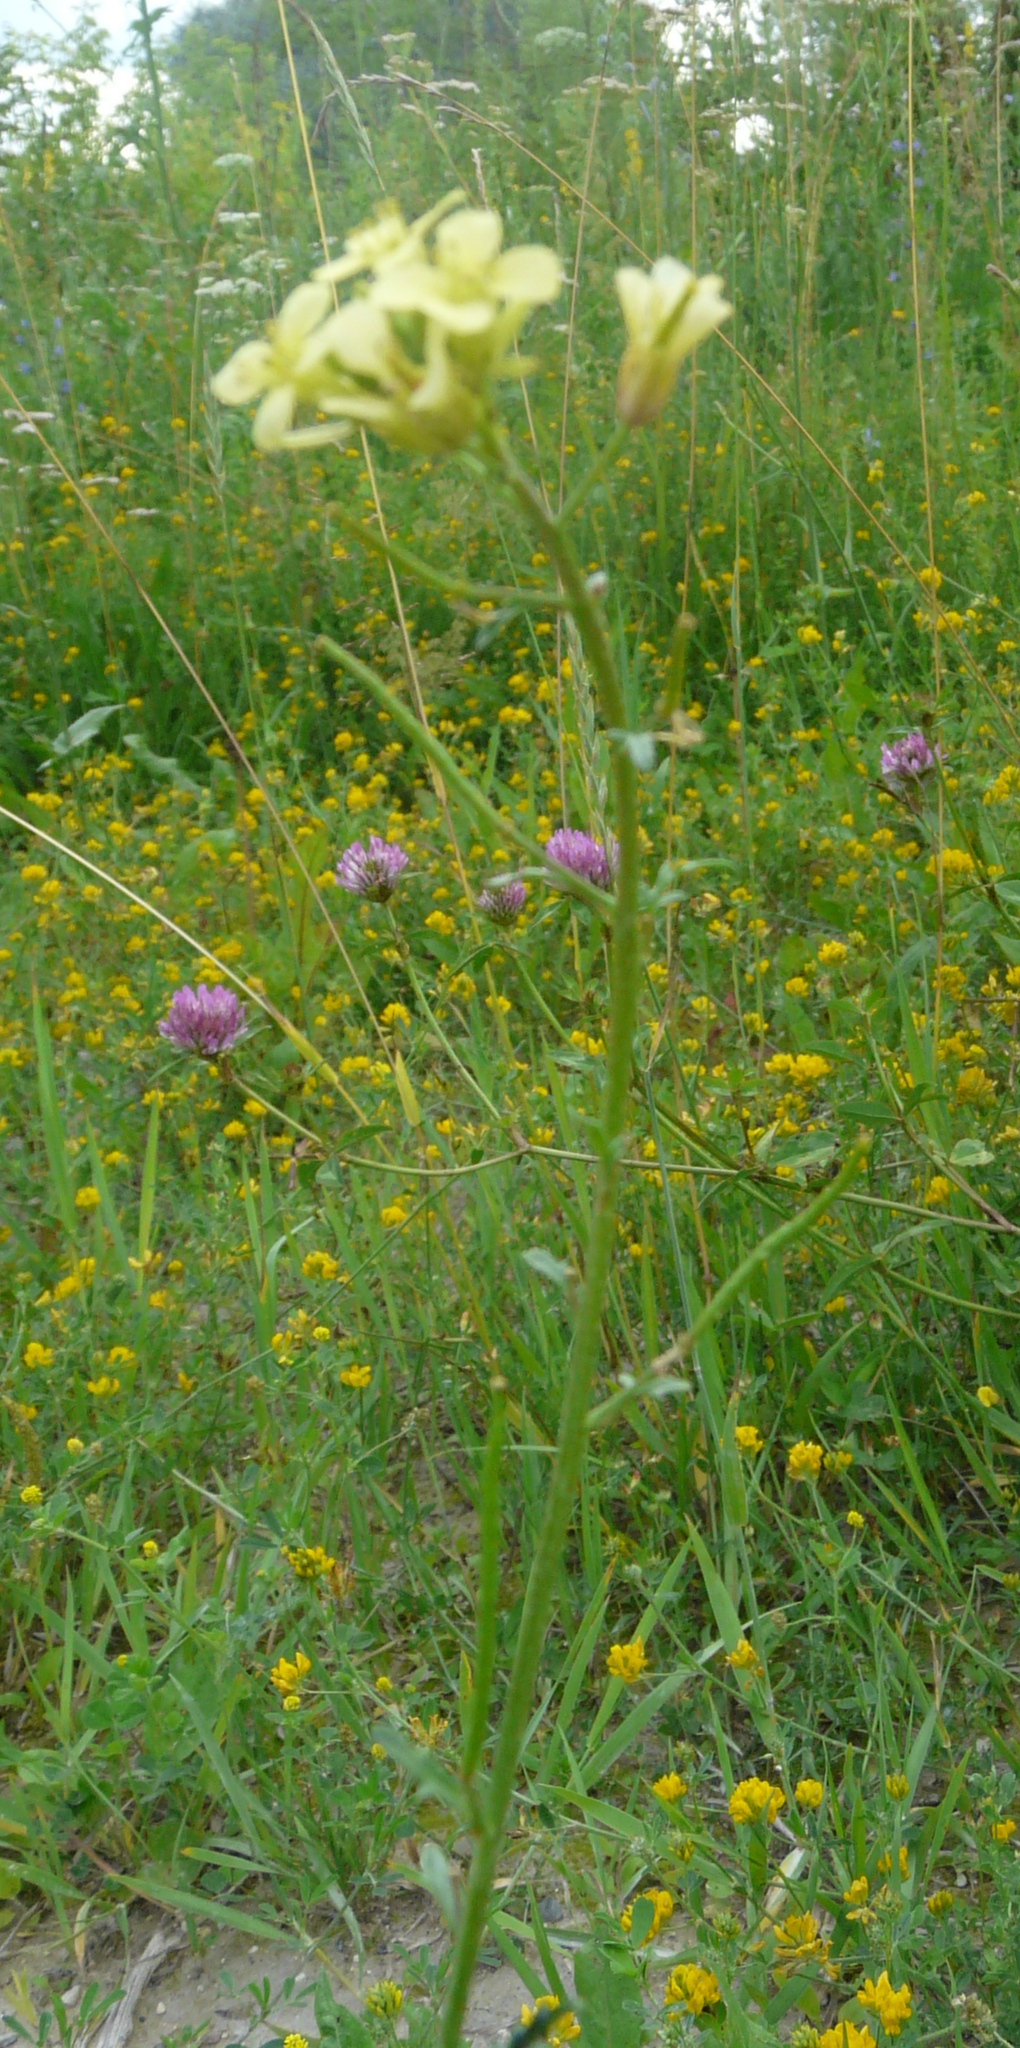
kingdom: Plantae
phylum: Tracheophyta
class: Magnoliopsida
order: Brassicales
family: Brassicaceae
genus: Erucastrum
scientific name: Erucastrum gallicum
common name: Hairy rocket
